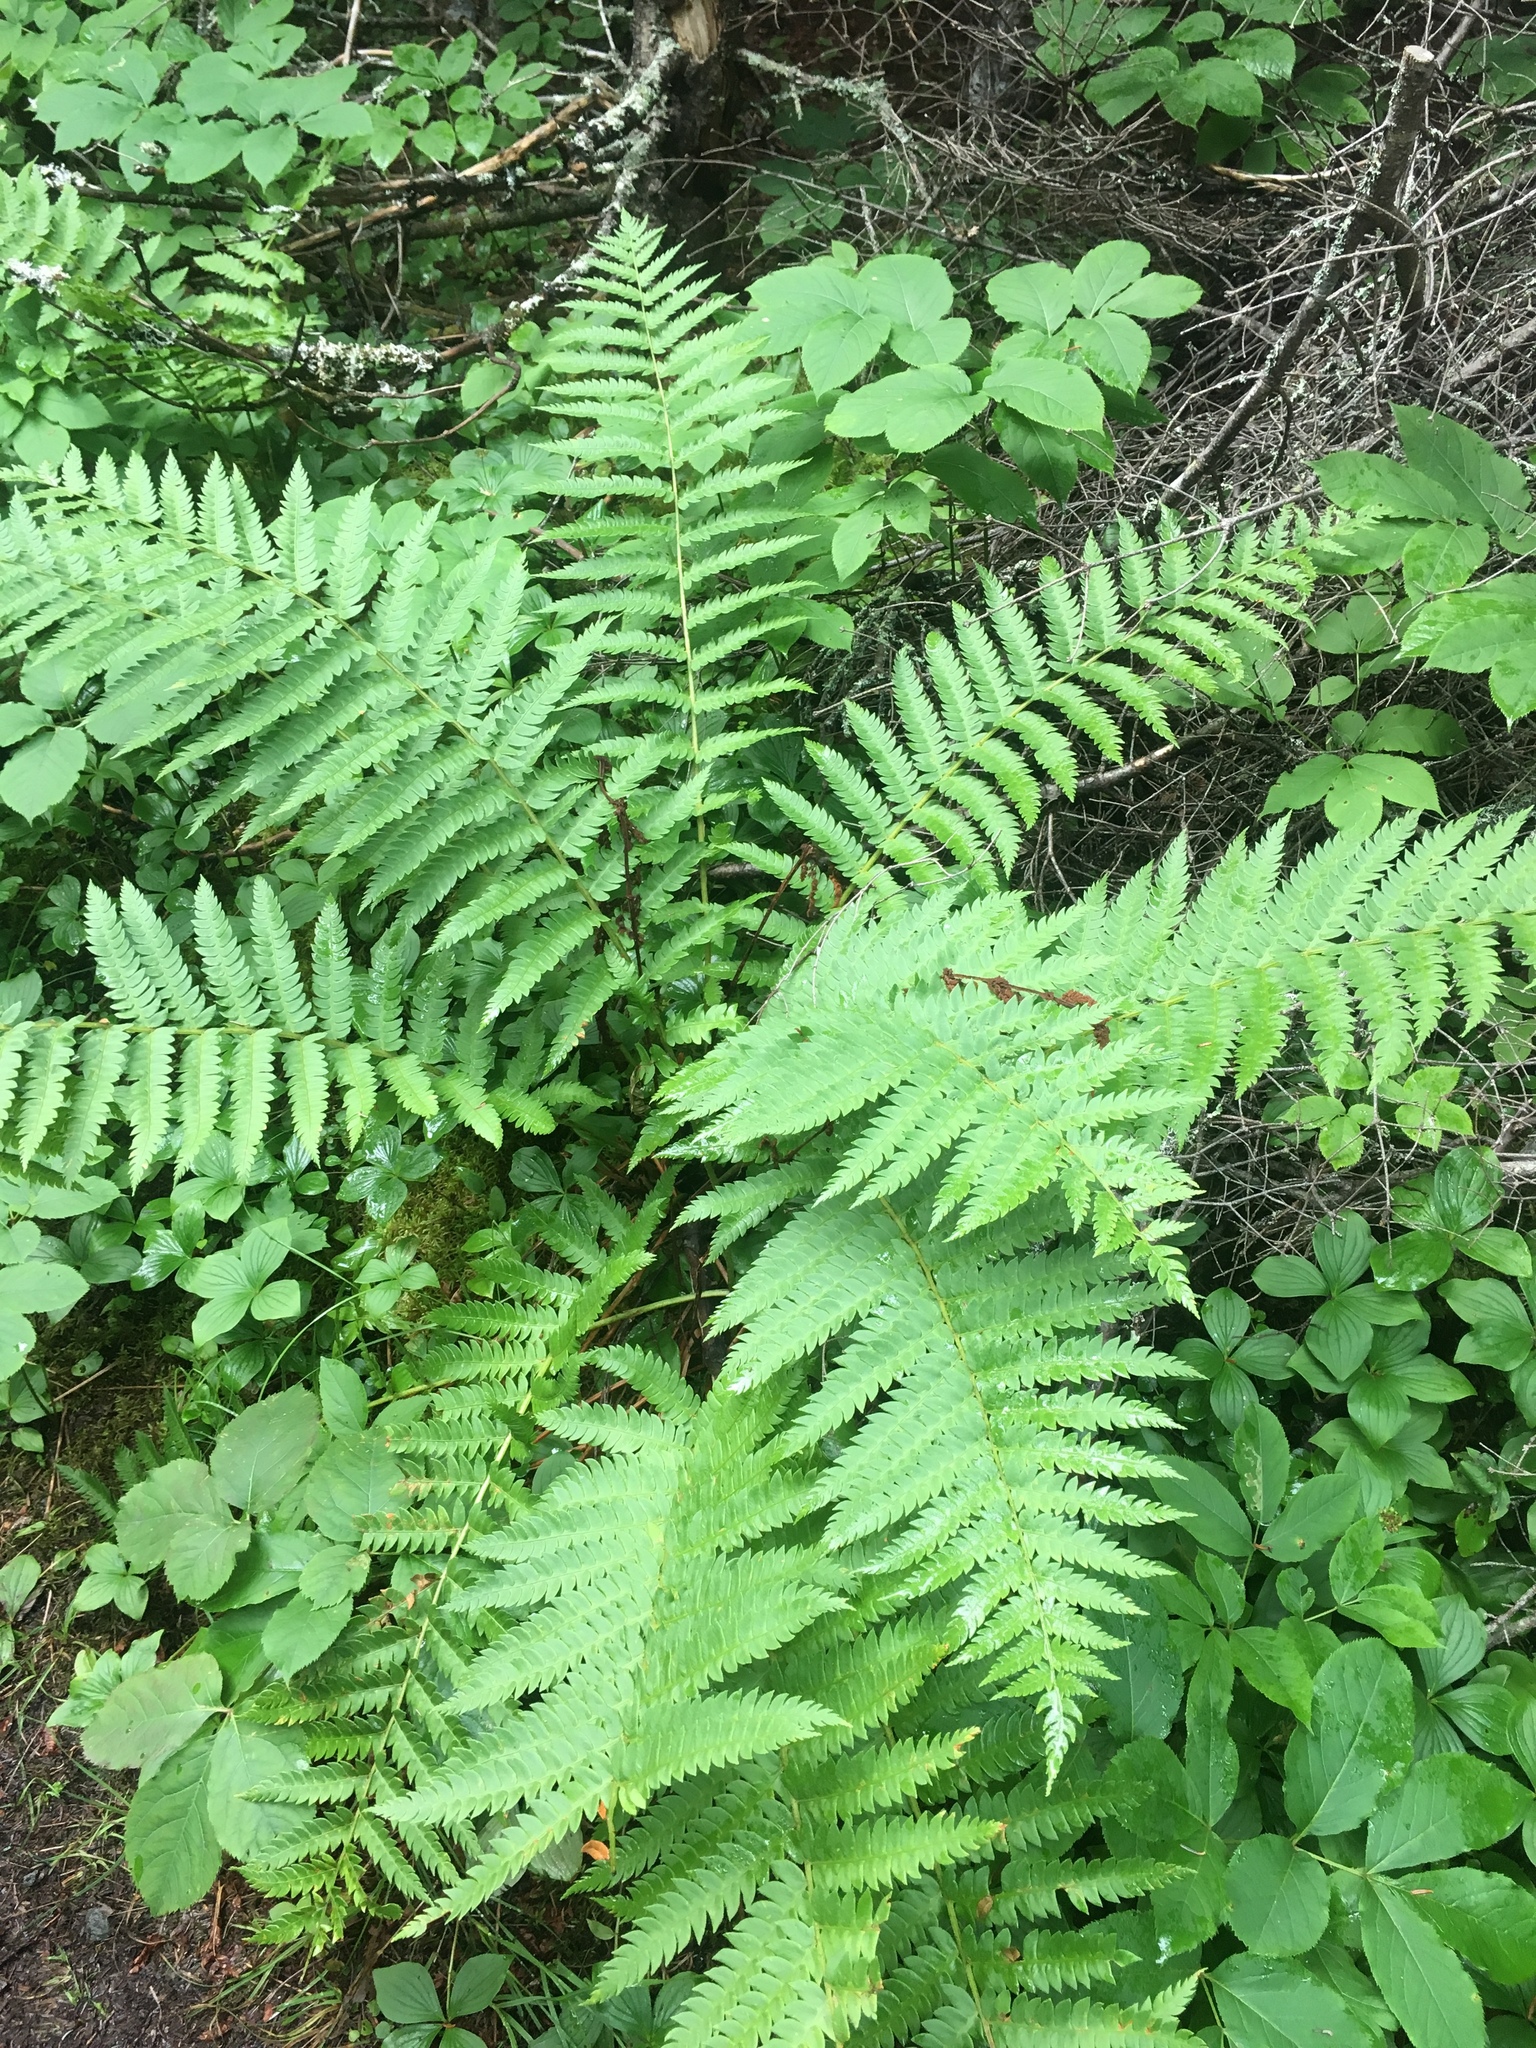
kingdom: Plantae
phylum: Tracheophyta
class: Polypodiopsida
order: Osmundales
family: Osmundaceae
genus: Osmundastrum
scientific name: Osmundastrum cinnamomeum
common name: Cinnamon fern
